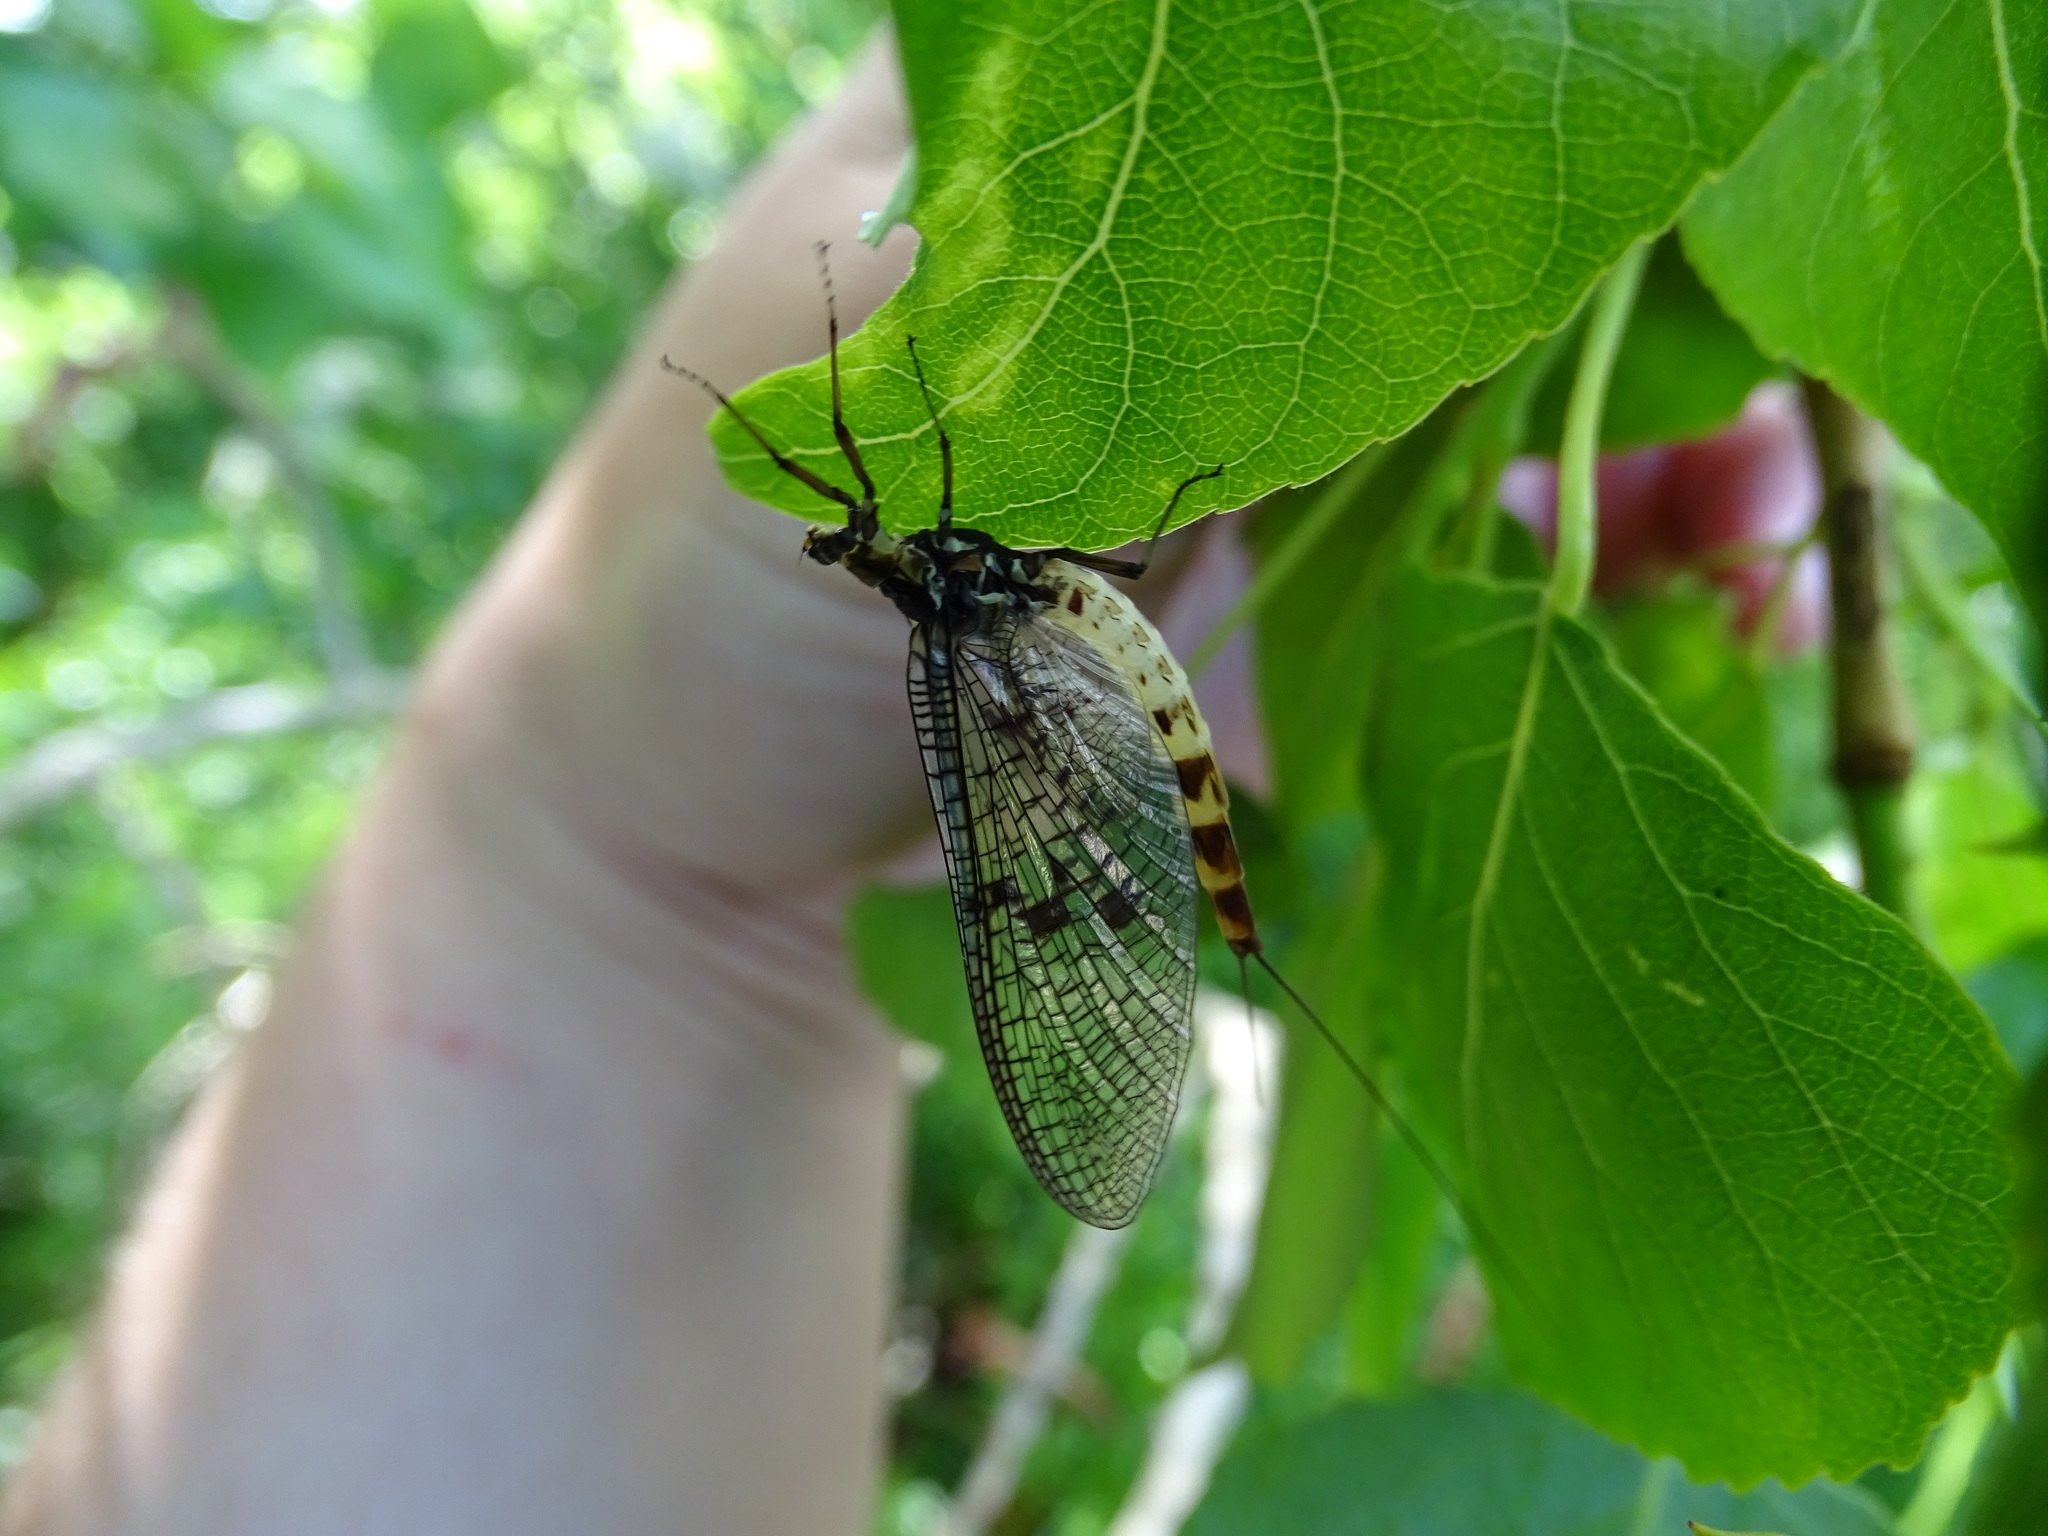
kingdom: Animalia
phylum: Arthropoda
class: Insecta
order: Ephemeroptera
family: Ephemeridae
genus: Ephemera
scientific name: Ephemera danica
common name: Green dun
